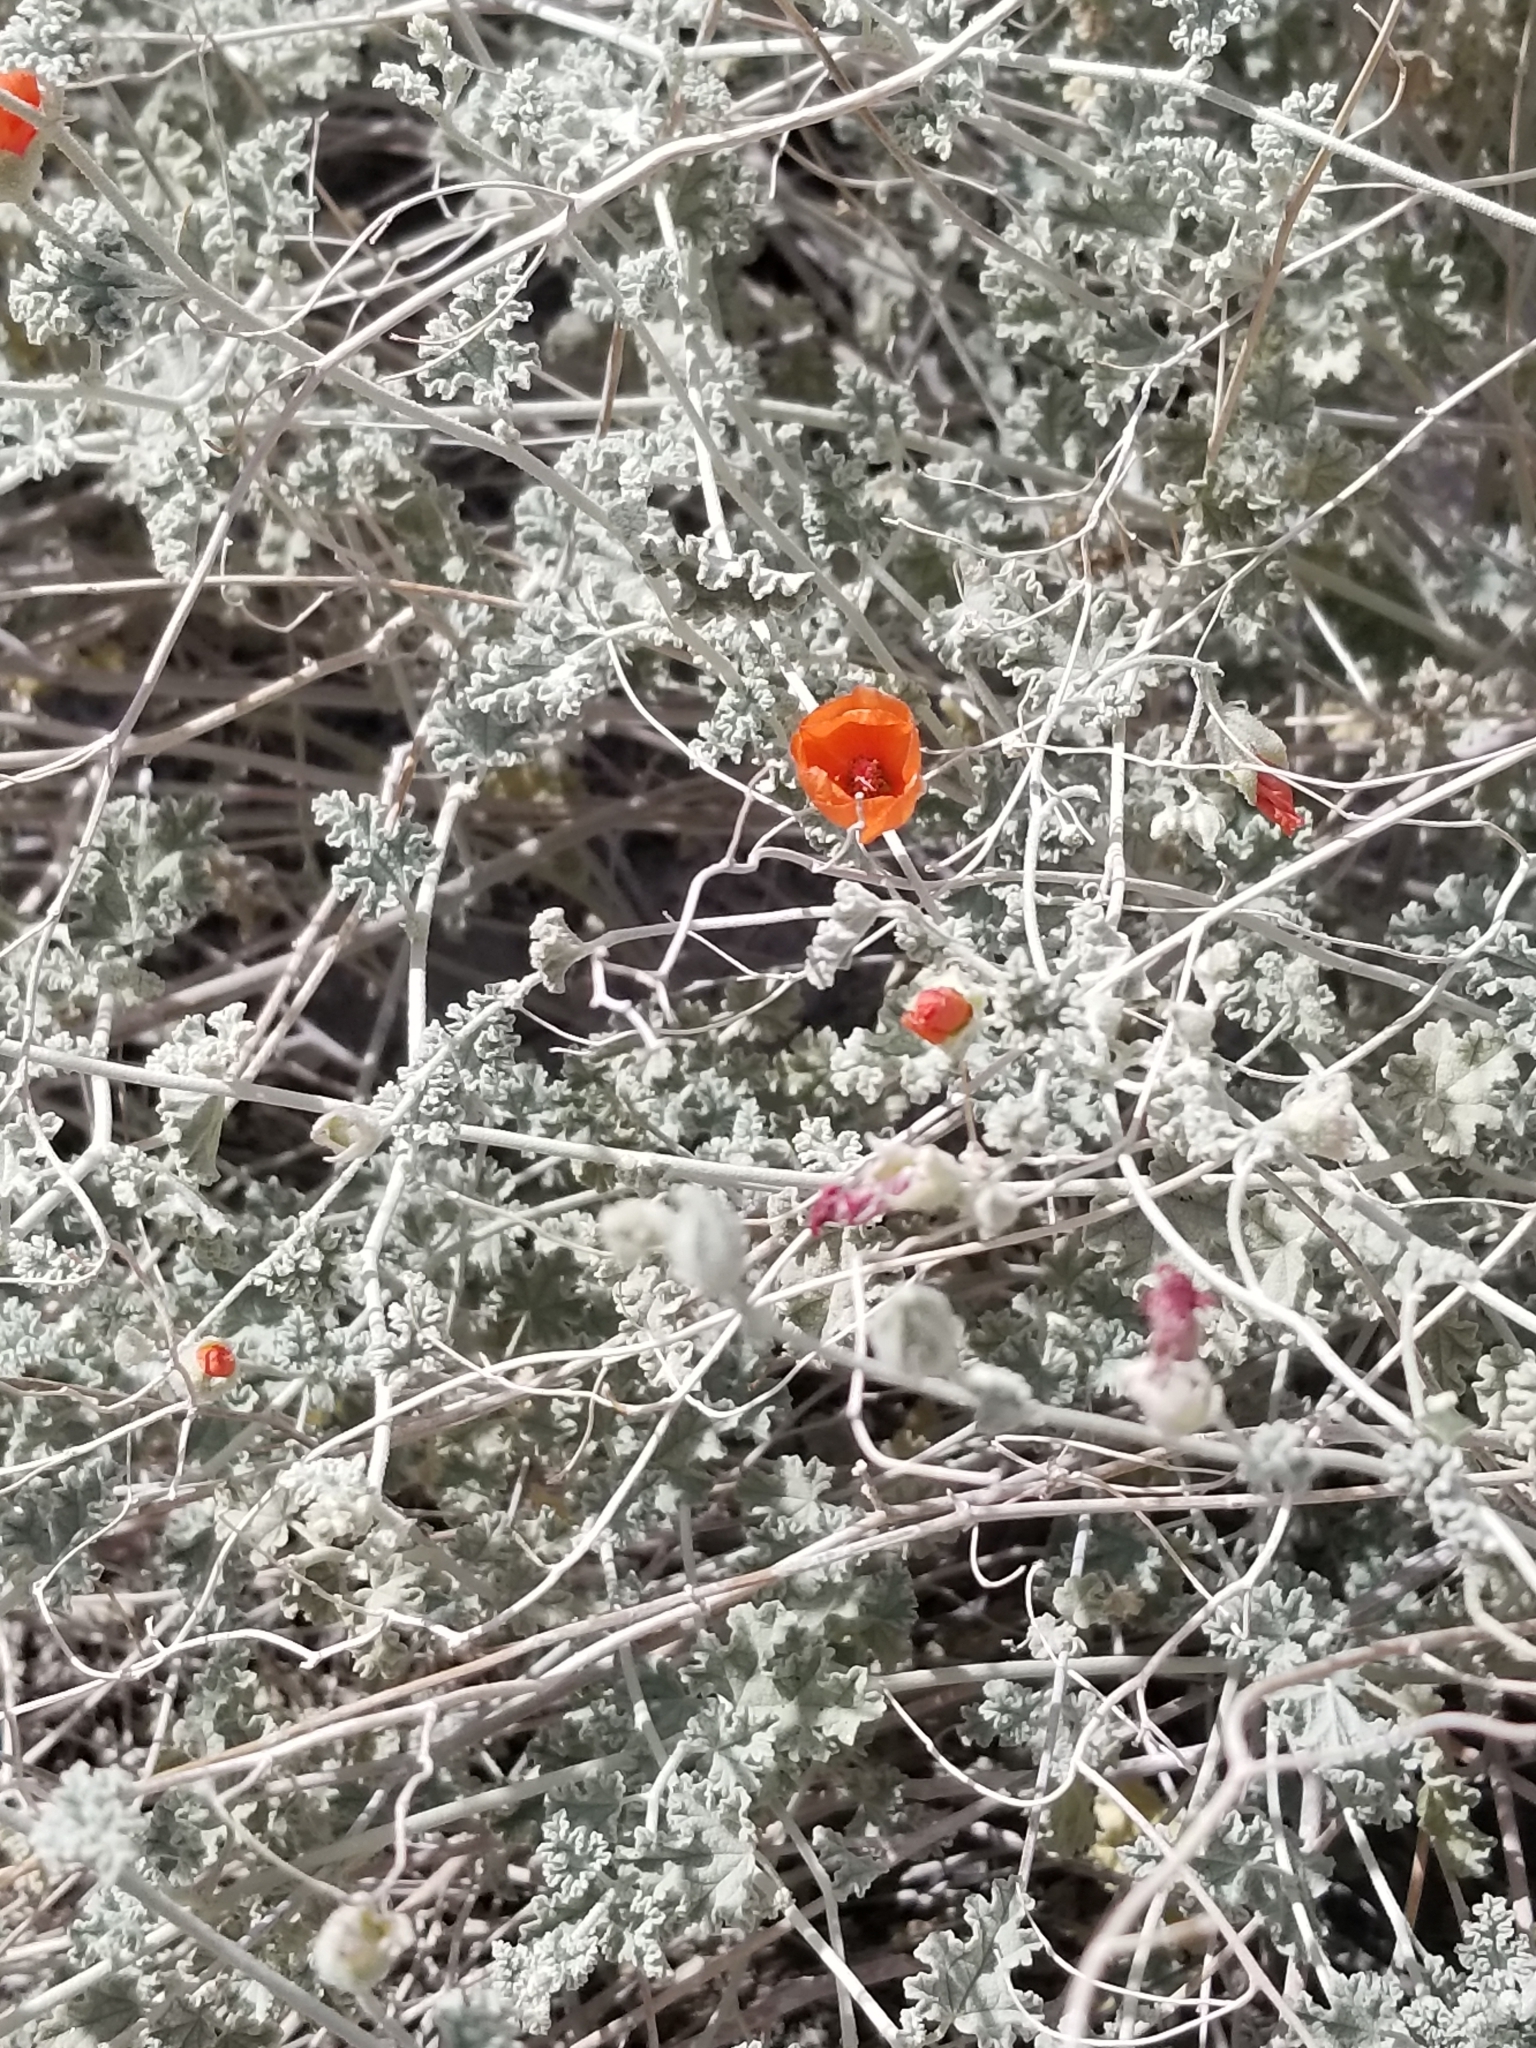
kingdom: Plantae
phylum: Tracheophyta
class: Magnoliopsida
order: Malvales
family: Malvaceae
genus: Sphaeralcea
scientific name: Sphaeralcea ambigua
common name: Apricot globe-mallow
